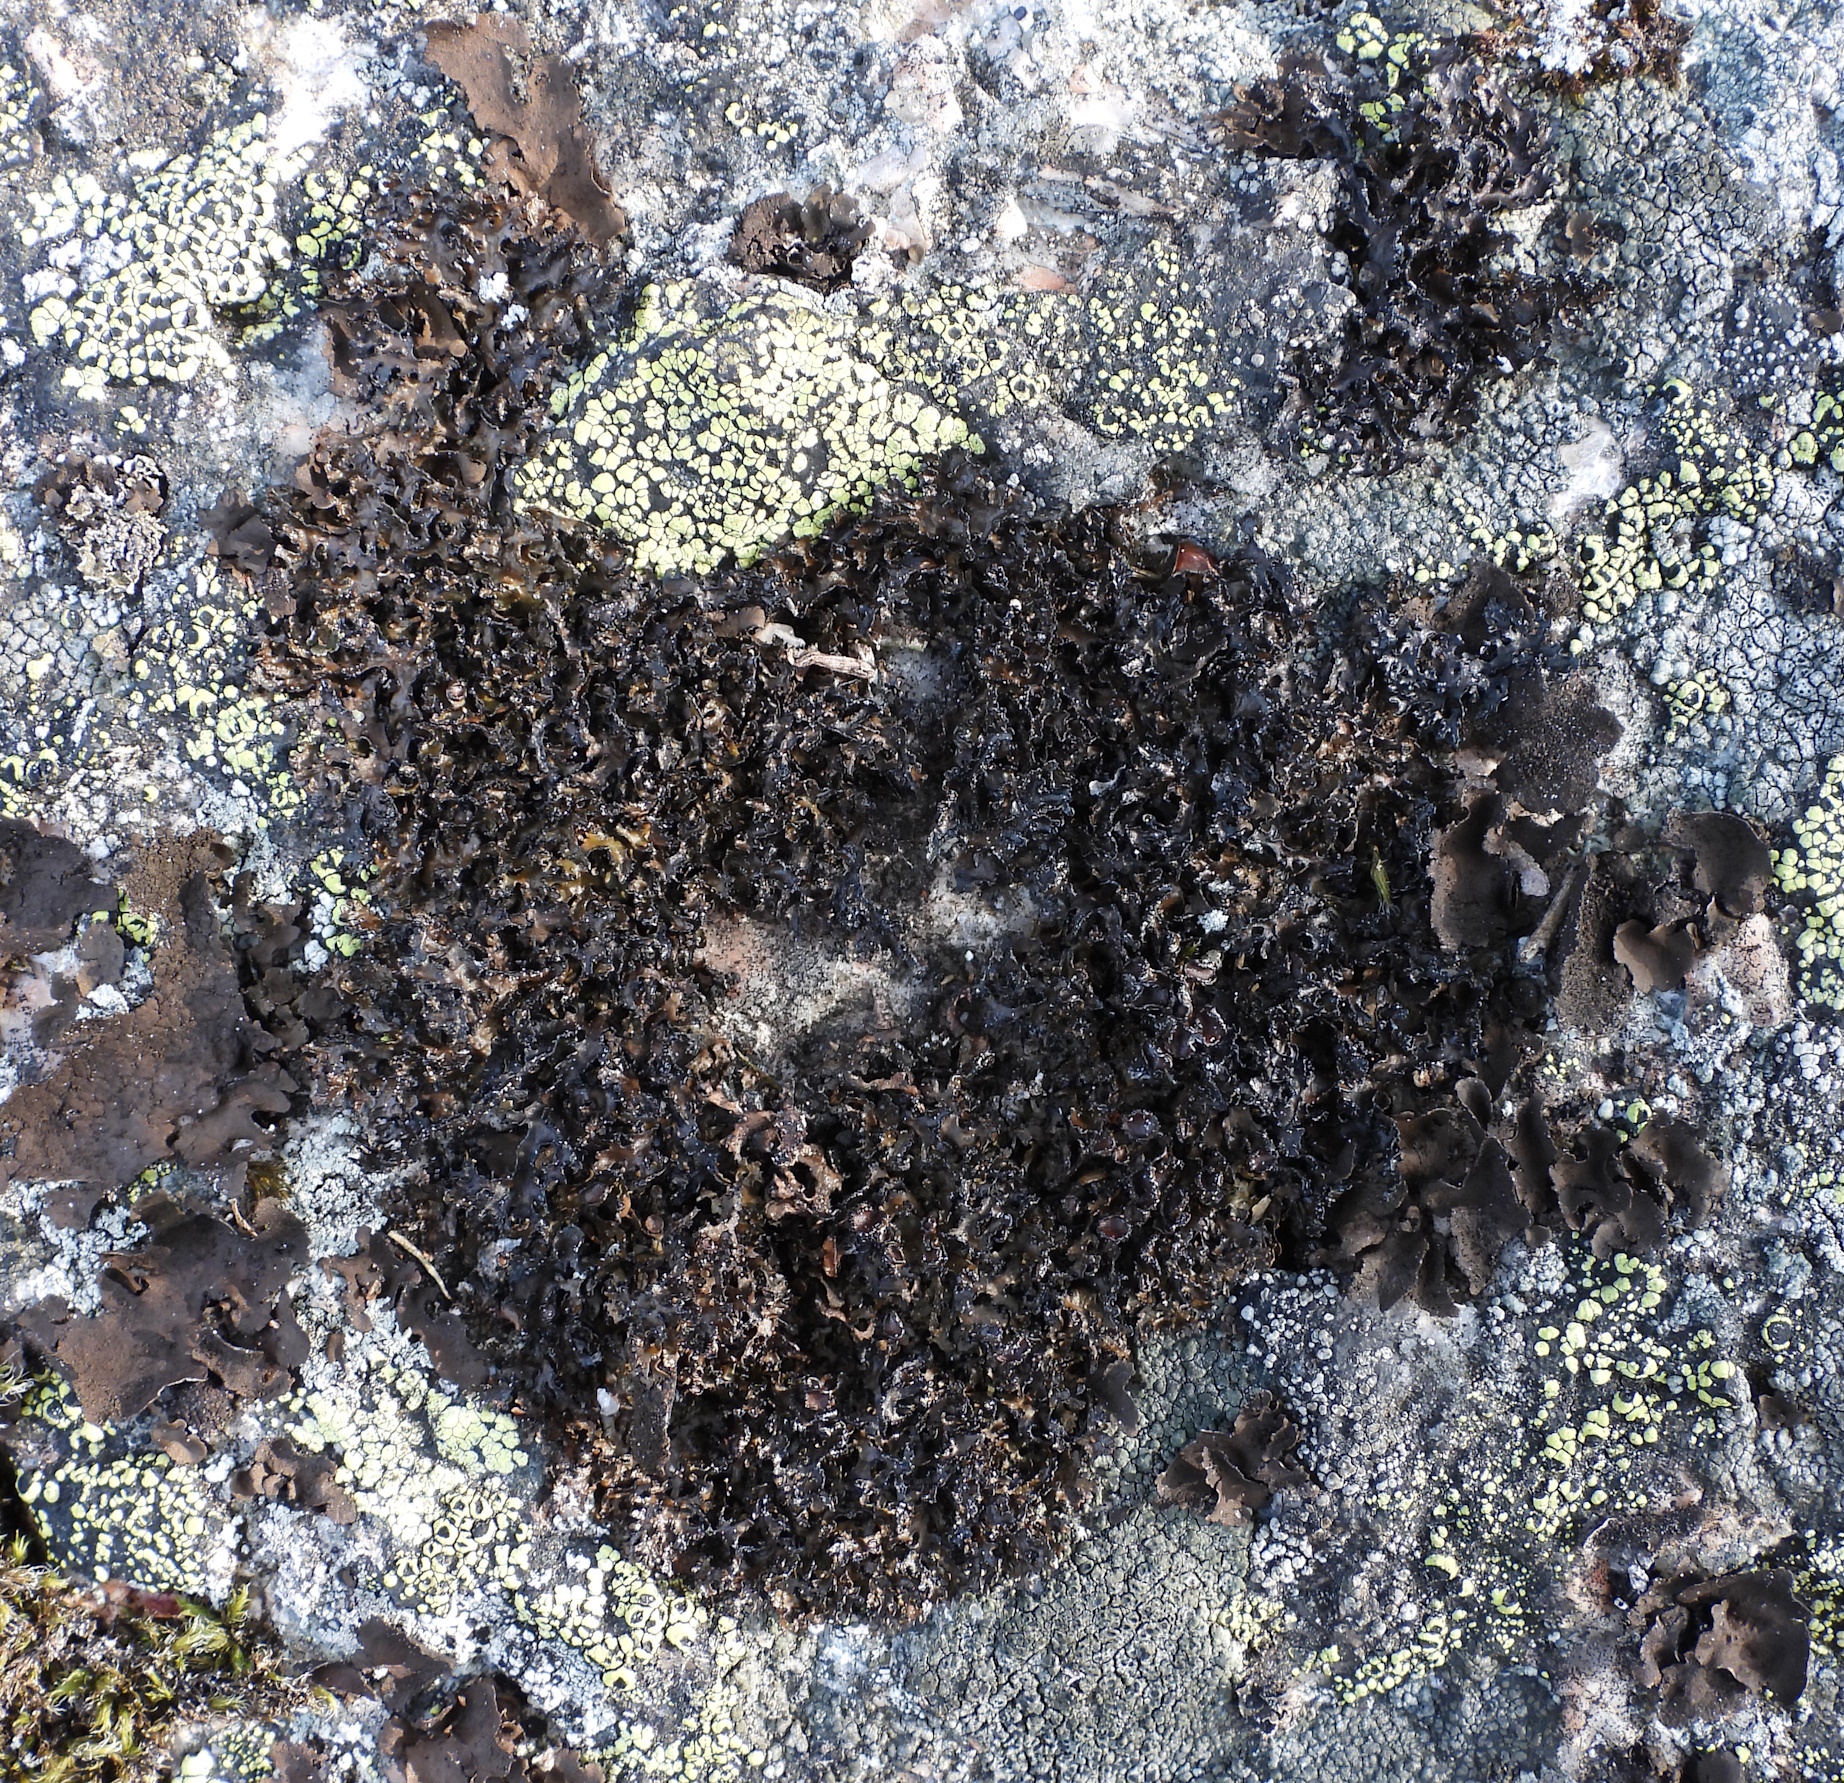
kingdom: Fungi
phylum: Ascomycota
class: Lecanoromycetes
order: Lecanorales
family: Parmeliaceae
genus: Melanelia
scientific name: Melanelia commixta
